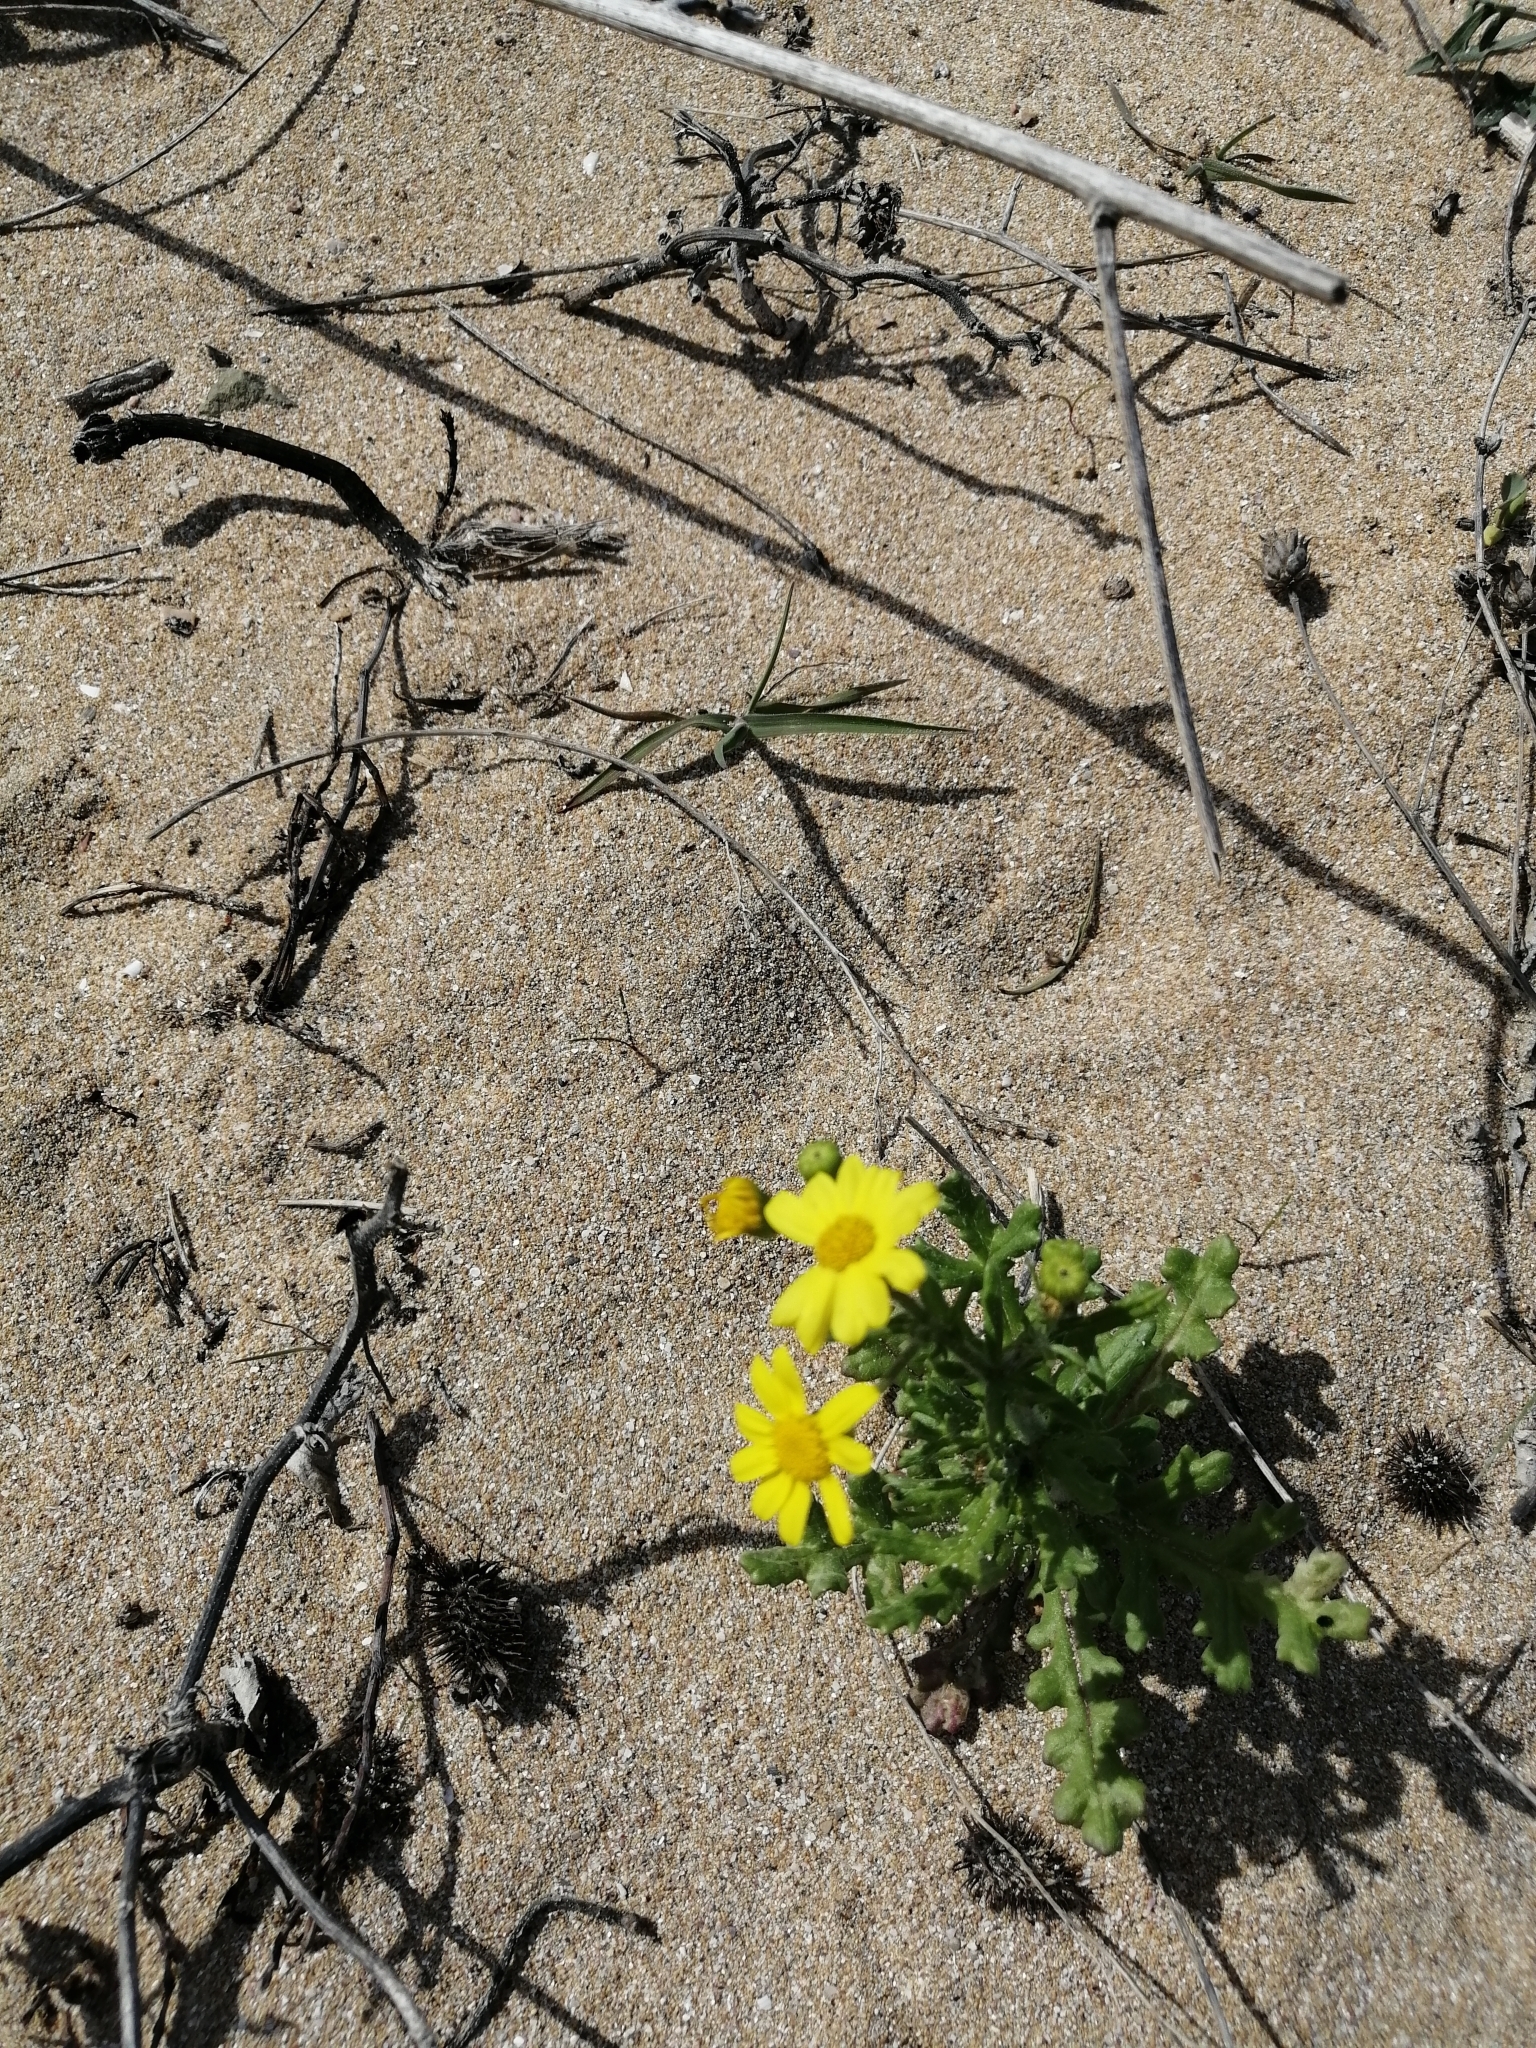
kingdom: Plantae
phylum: Tracheophyta
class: Magnoliopsida
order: Asterales
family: Asteraceae
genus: Senecio
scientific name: Senecio vernalis
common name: Eastern groundsel
